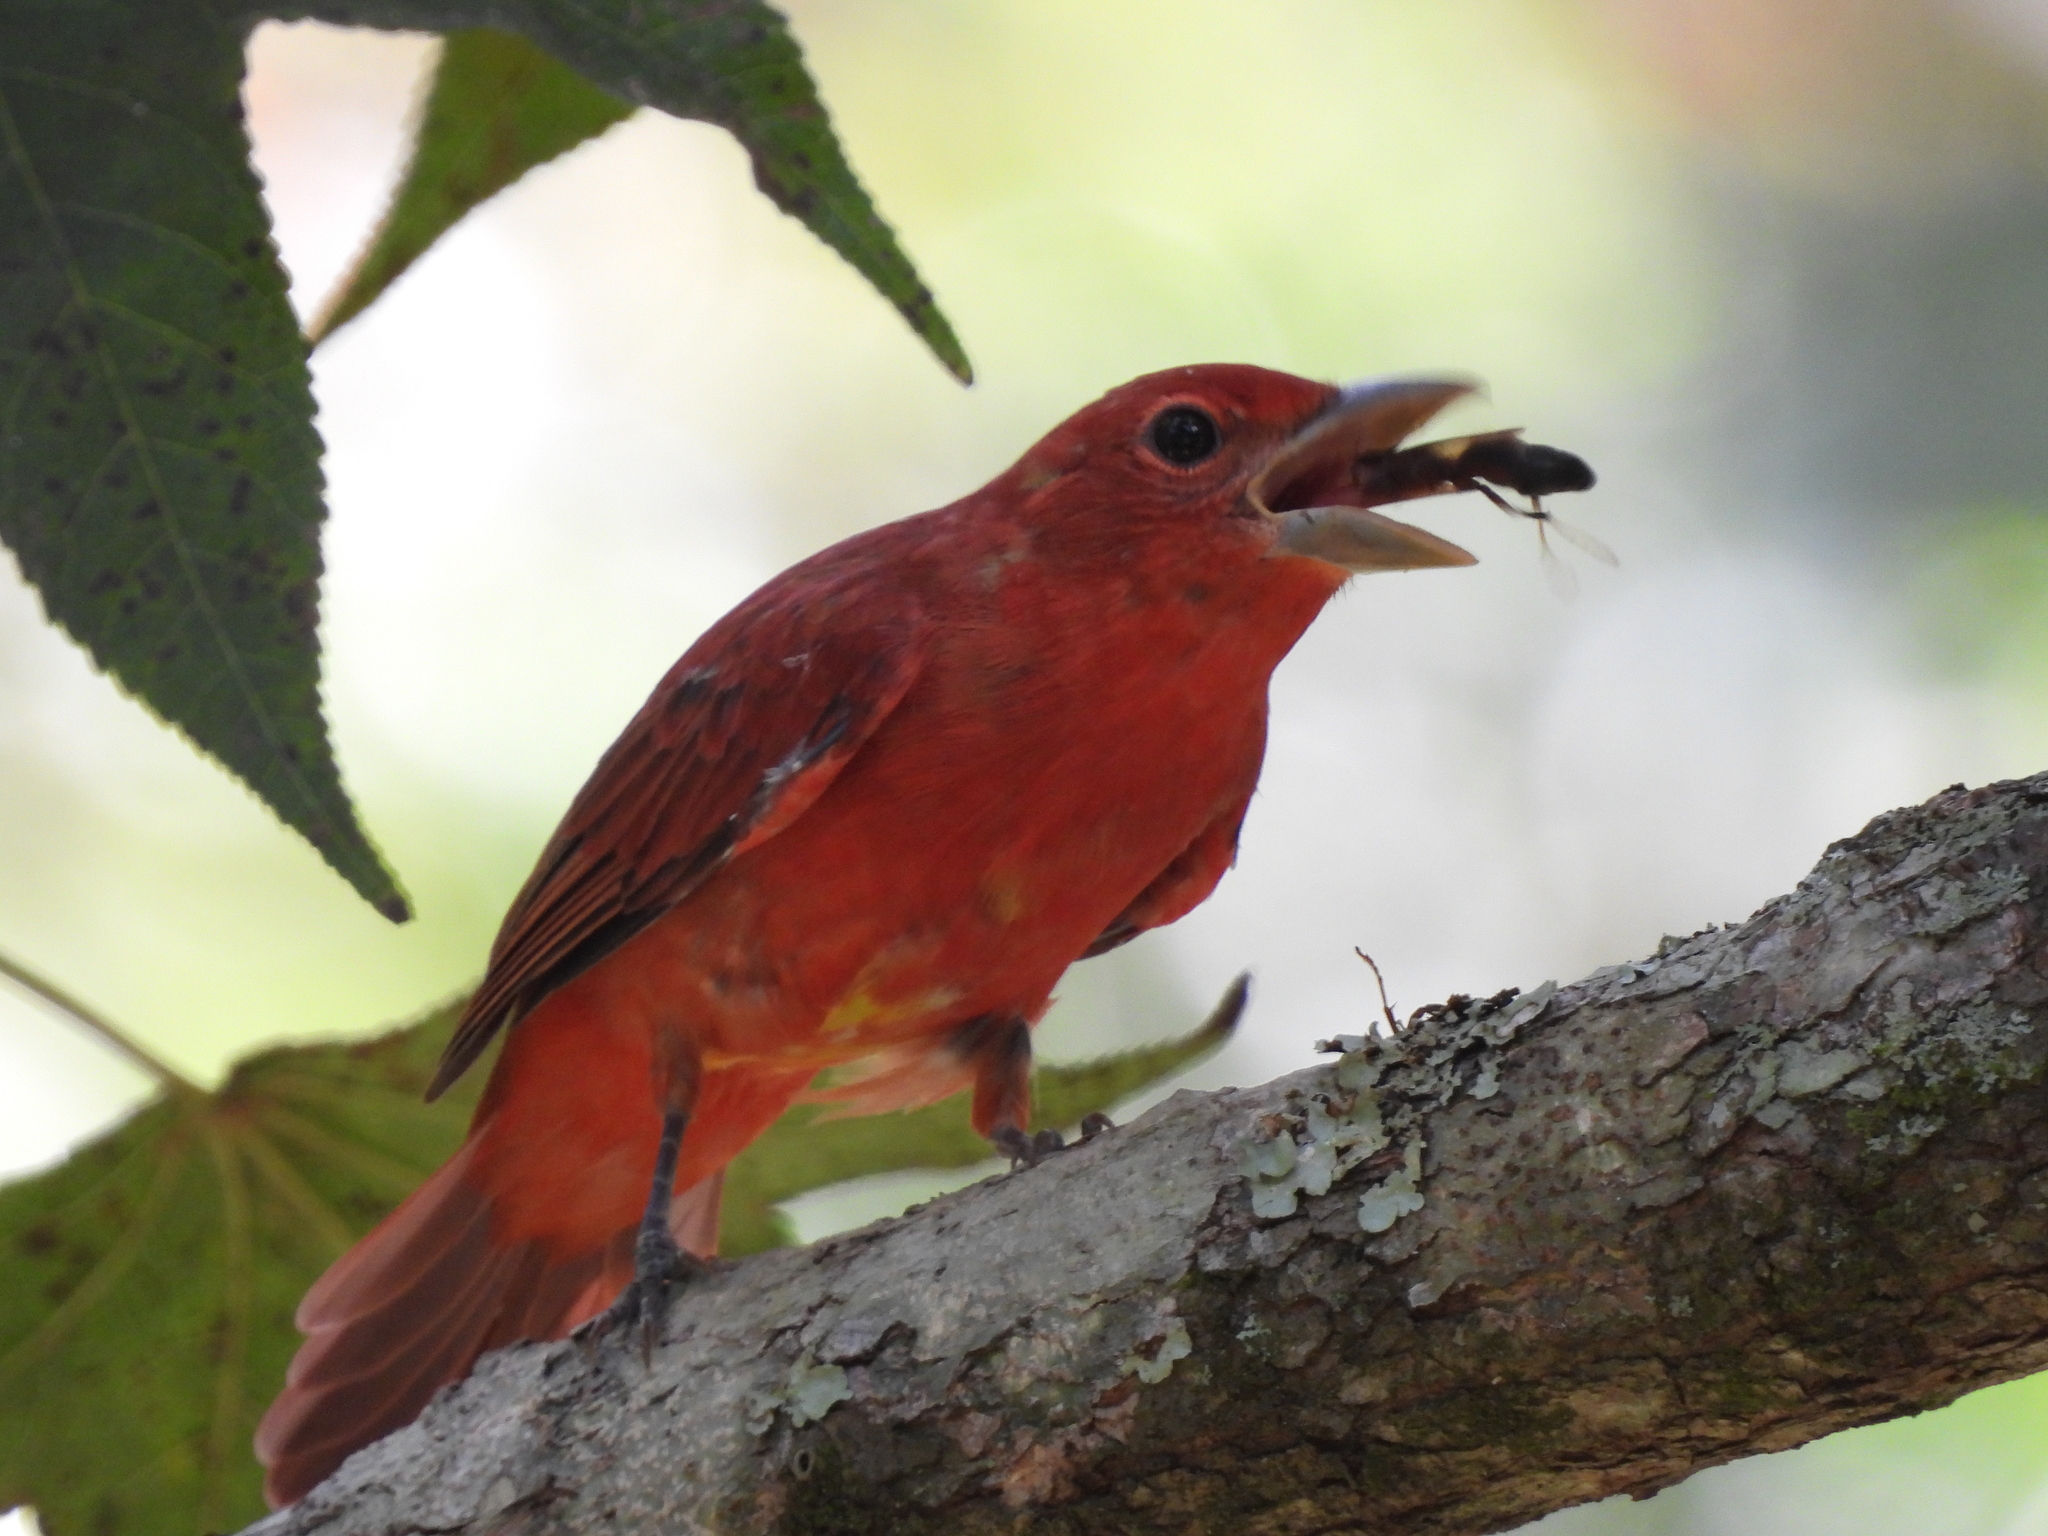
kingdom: Animalia
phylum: Chordata
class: Aves
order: Passeriformes
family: Cardinalidae
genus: Piranga
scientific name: Piranga rubra
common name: Summer tanager
